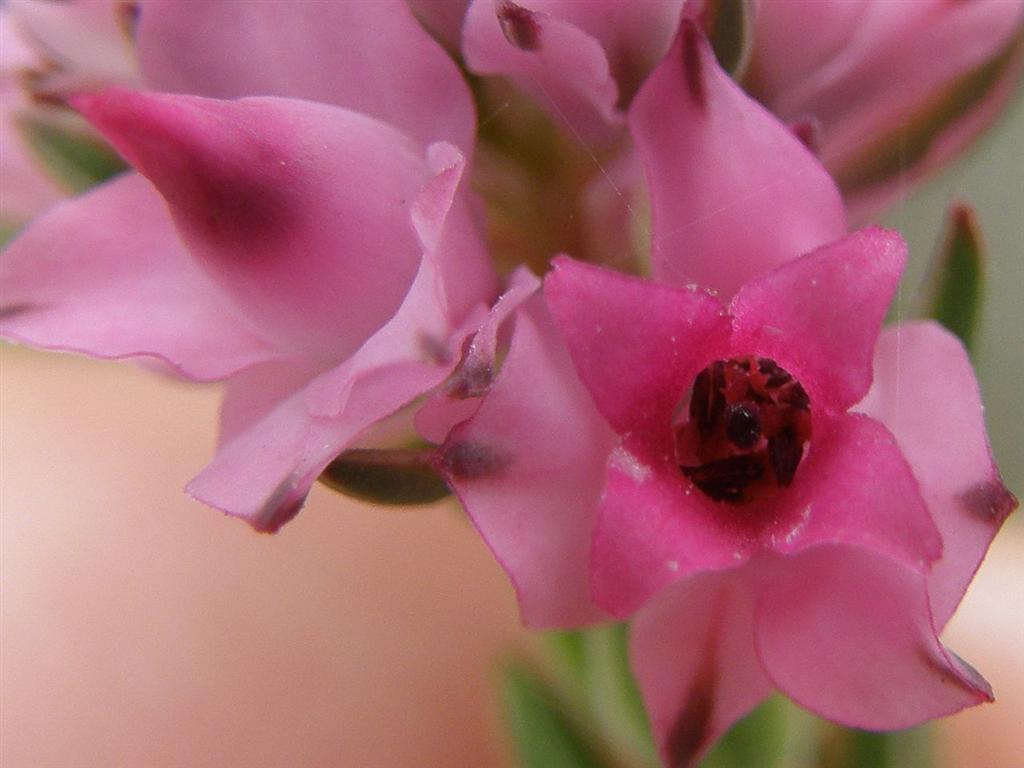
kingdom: Plantae
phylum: Tracheophyta
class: Magnoliopsida
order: Ericales
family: Ericaceae
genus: Erica
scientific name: Erica taxifolia
